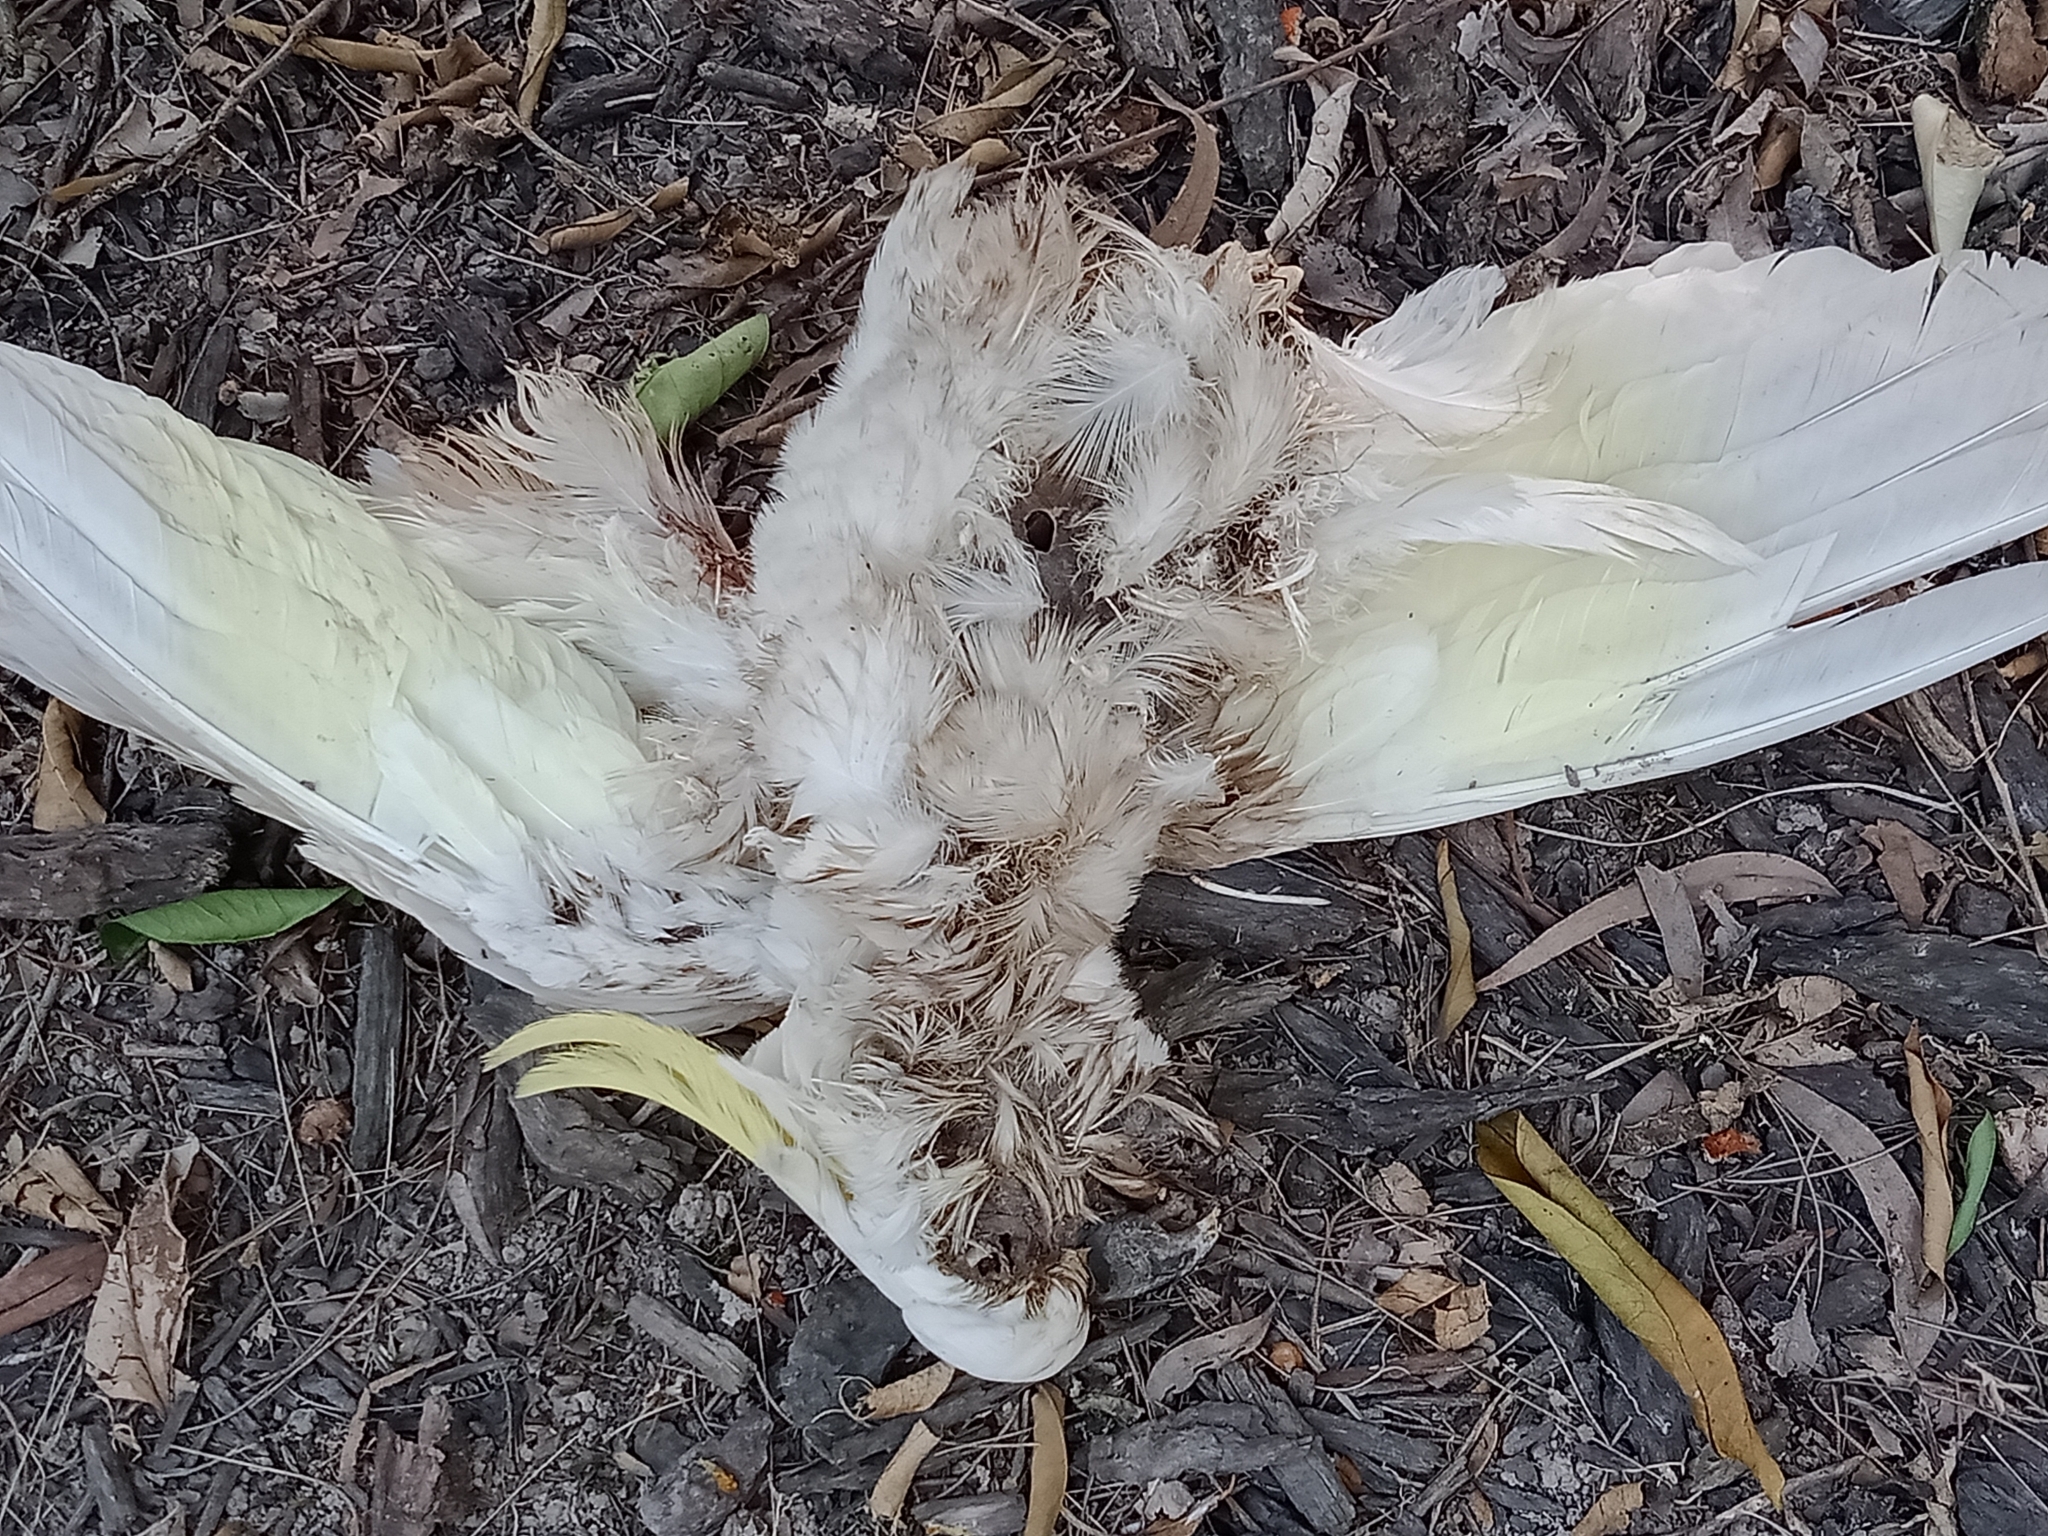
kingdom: Animalia
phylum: Chordata
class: Aves
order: Psittaciformes
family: Psittacidae
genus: Cacatua
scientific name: Cacatua galerita
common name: Sulphur-crested cockatoo
